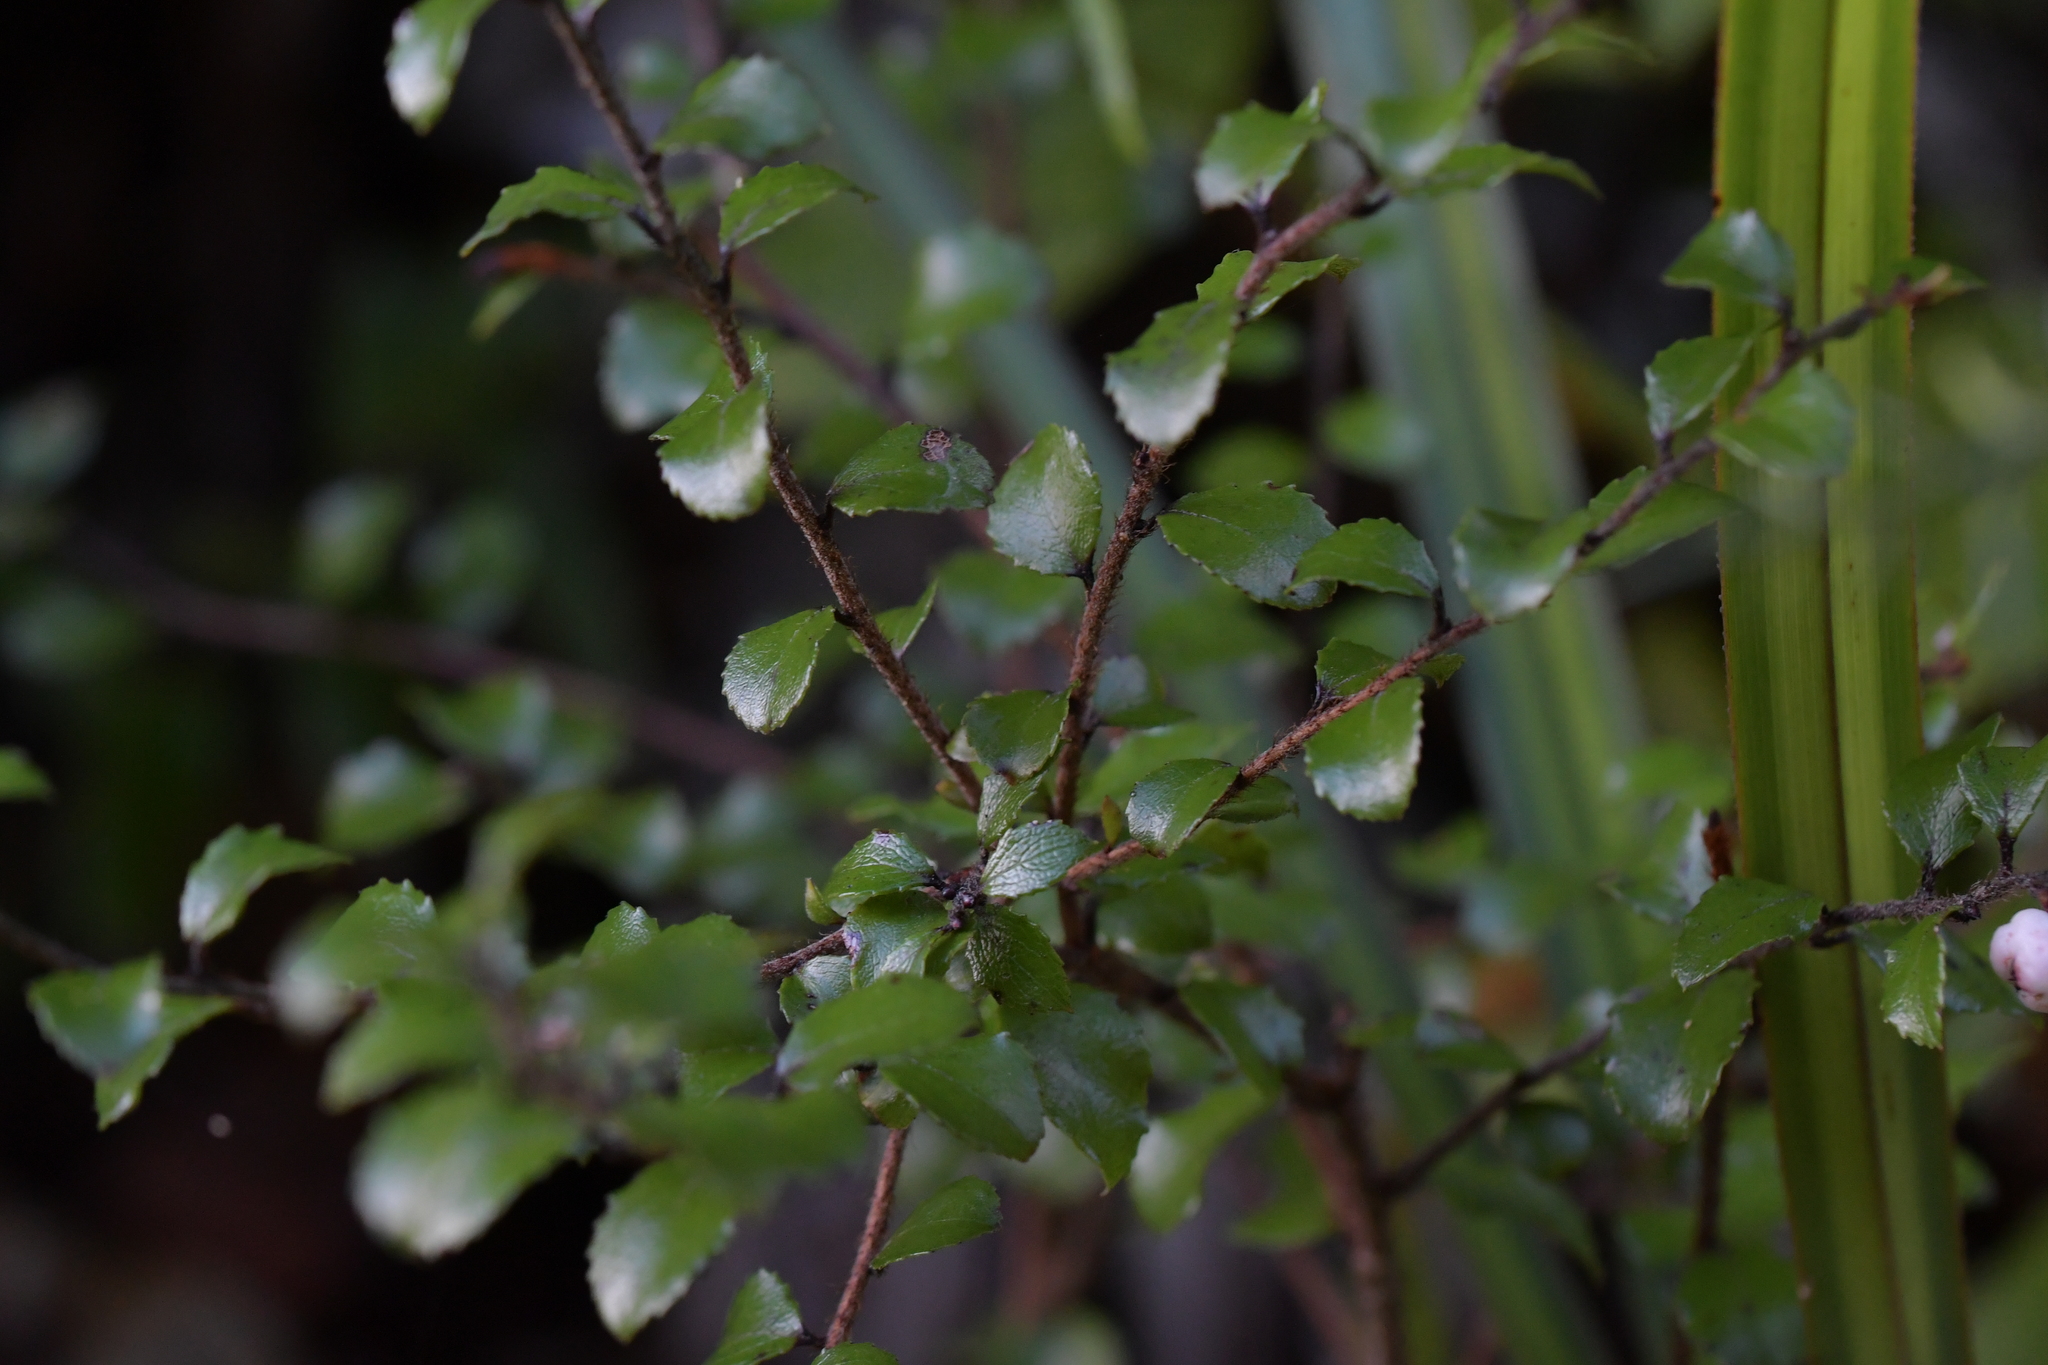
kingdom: Plantae
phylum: Tracheophyta
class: Magnoliopsida
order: Ericales
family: Ericaceae
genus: Gaultheria
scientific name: Gaultheria antipoda
